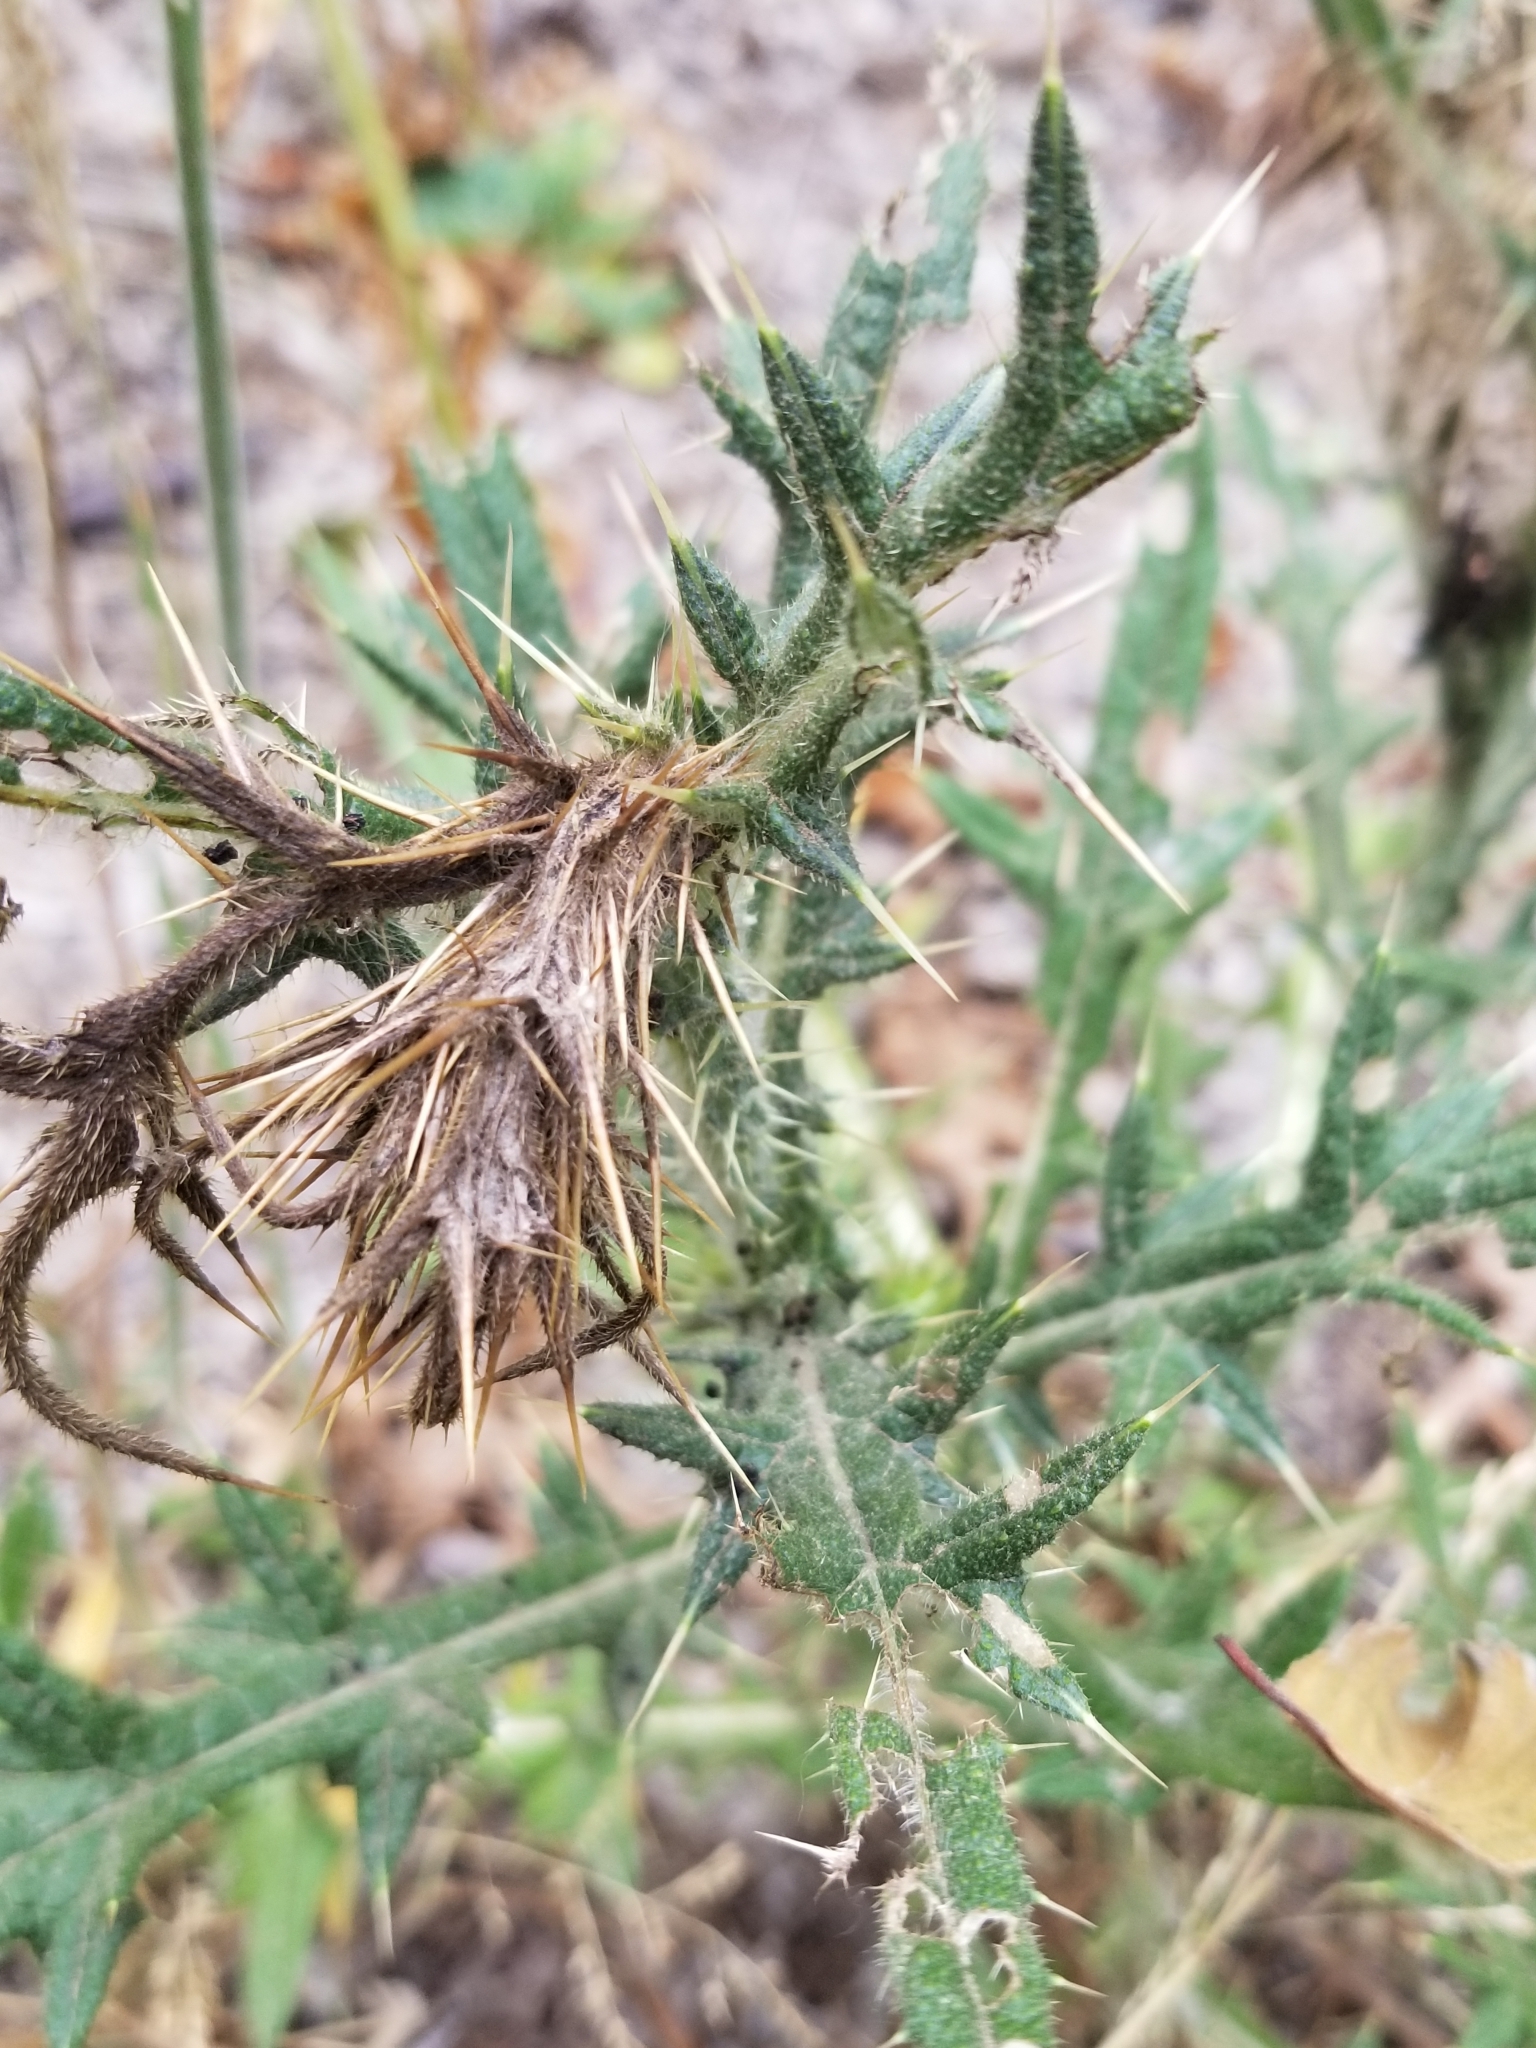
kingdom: Plantae
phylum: Tracheophyta
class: Magnoliopsida
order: Asterales
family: Asteraceae
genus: Cirsium
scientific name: Cirsium vulgare
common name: Bull thistle
